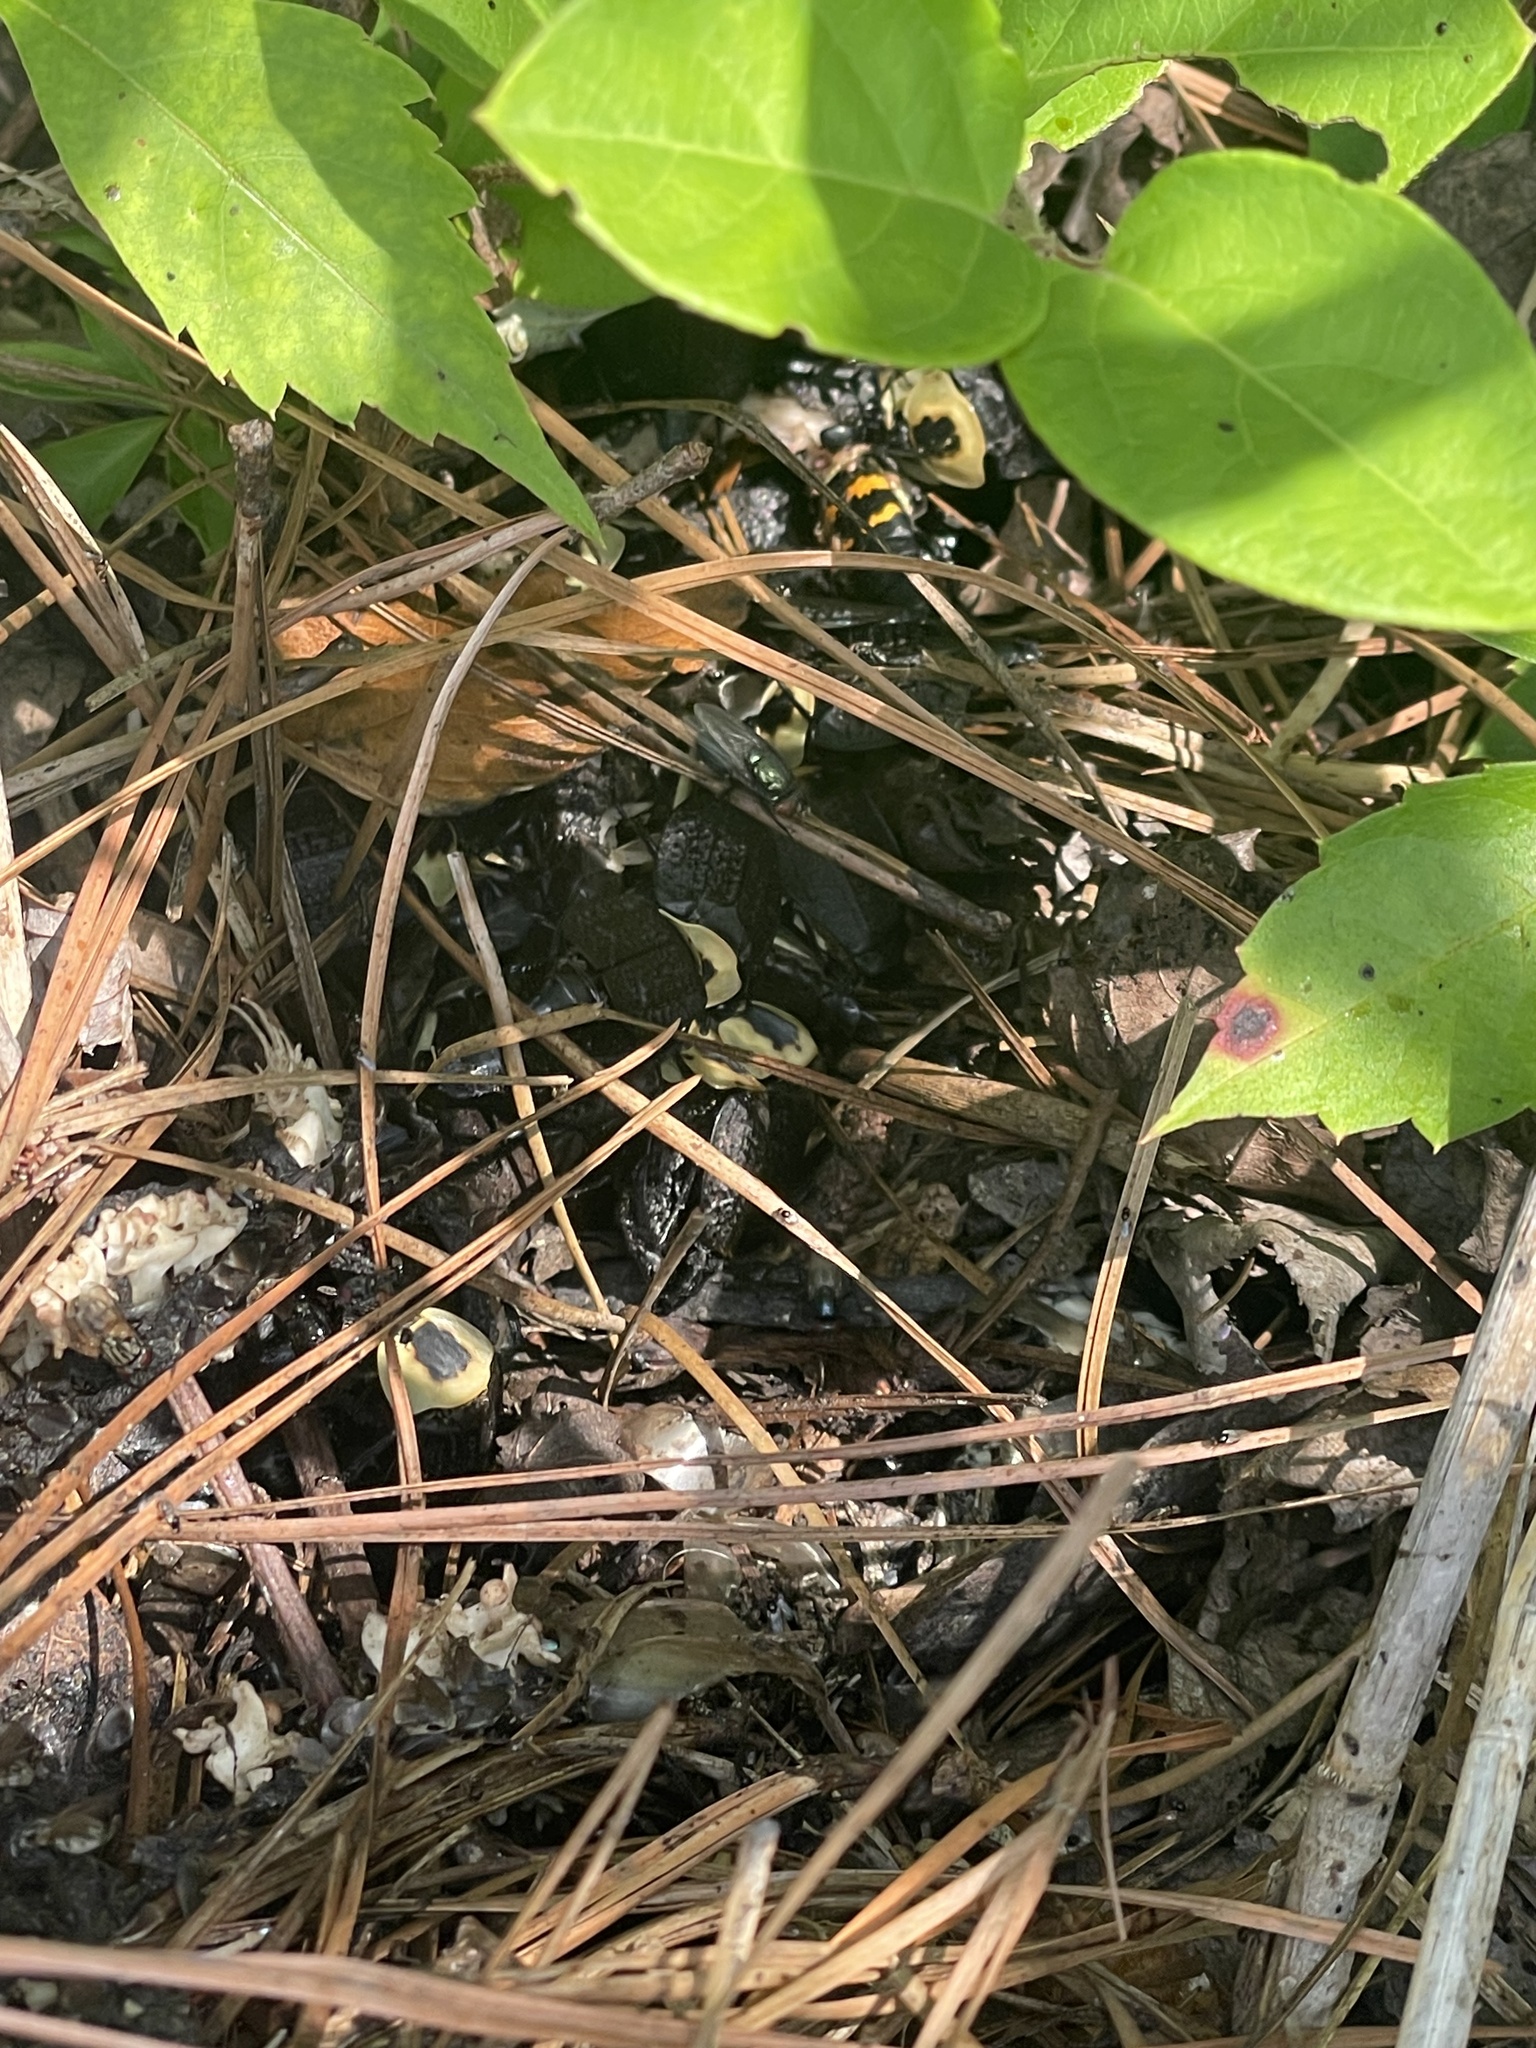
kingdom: Animalia
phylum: Arthropoda
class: Insecta
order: Coleoptera
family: Staphylinidae
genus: Necrophila
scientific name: Necrophila americana
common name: American carrion beetle
